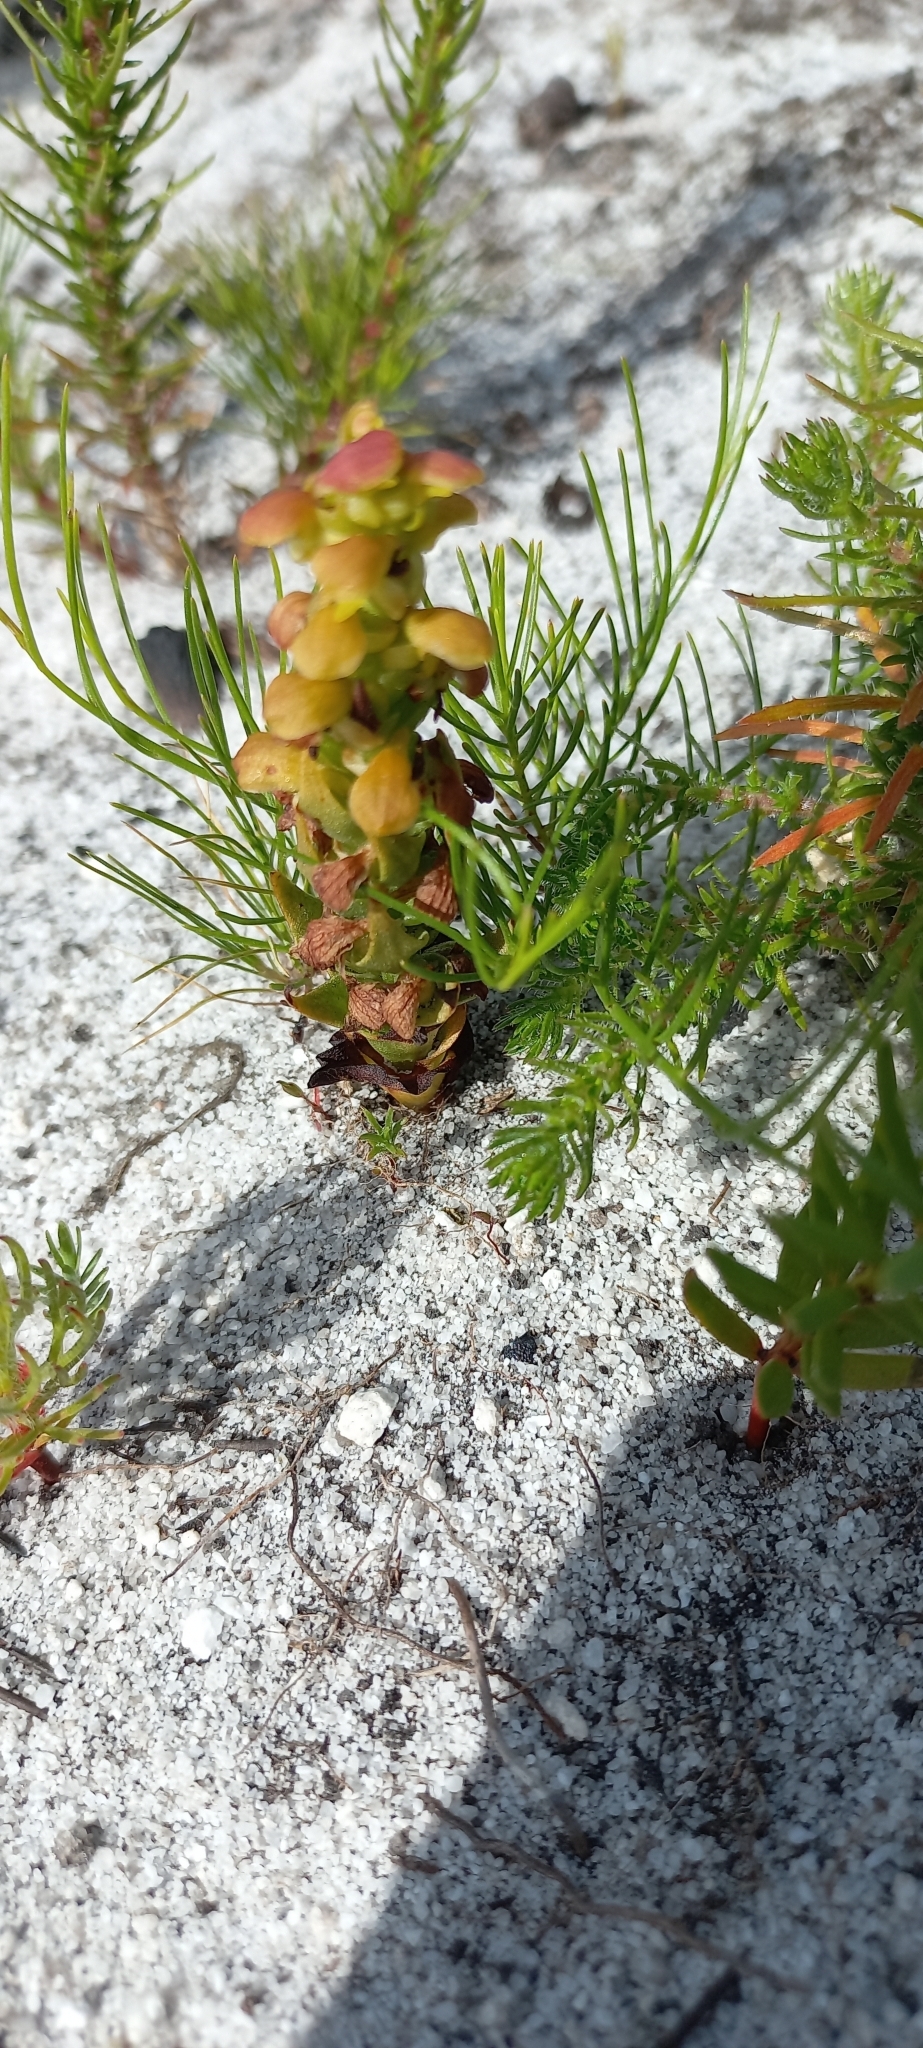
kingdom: Plantae
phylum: Tracheophyta
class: Liliopsida
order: Asparagales
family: Orchidaceae
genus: Disa
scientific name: Disa pygmaea
